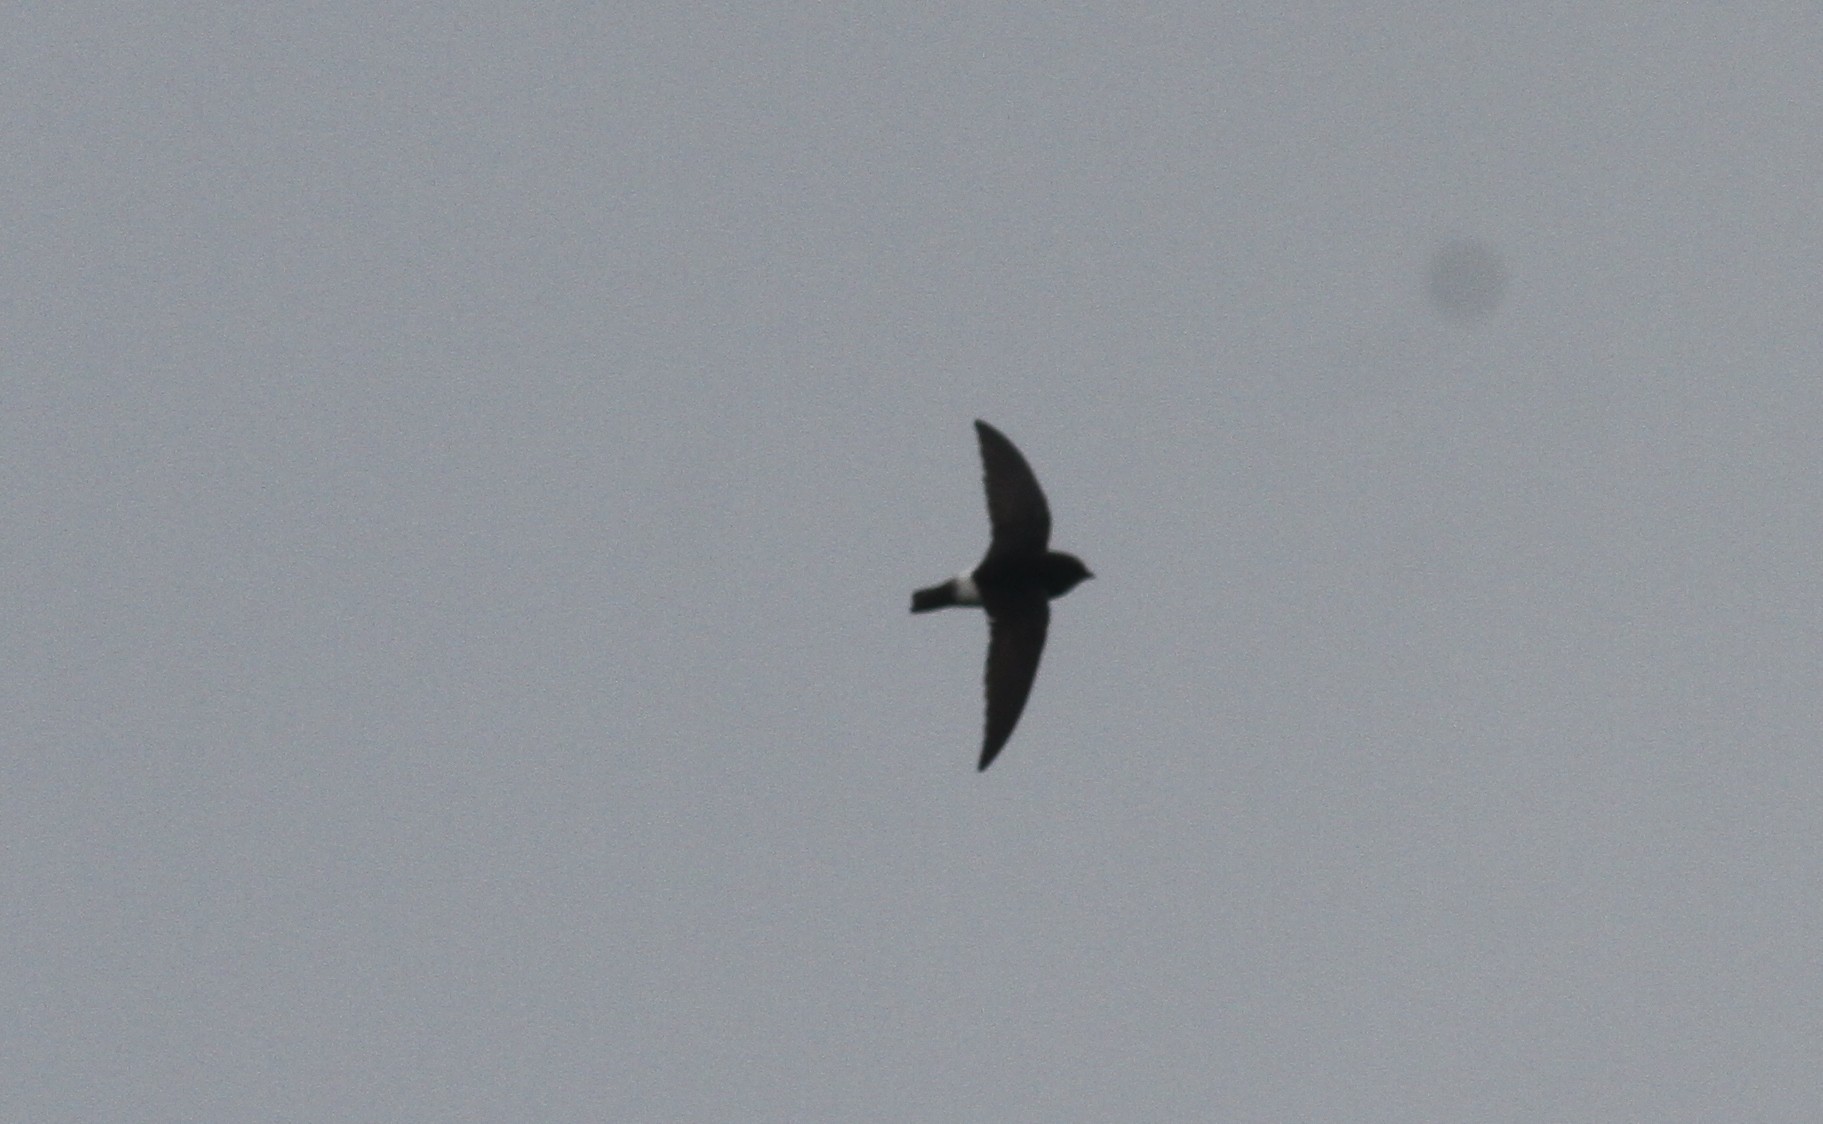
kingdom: Animalia
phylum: Chordata
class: Aves
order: Apodiformes
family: Apodidae
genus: Zoonavena
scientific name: Zoonavena sylvatica
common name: White-rumped spinetail
